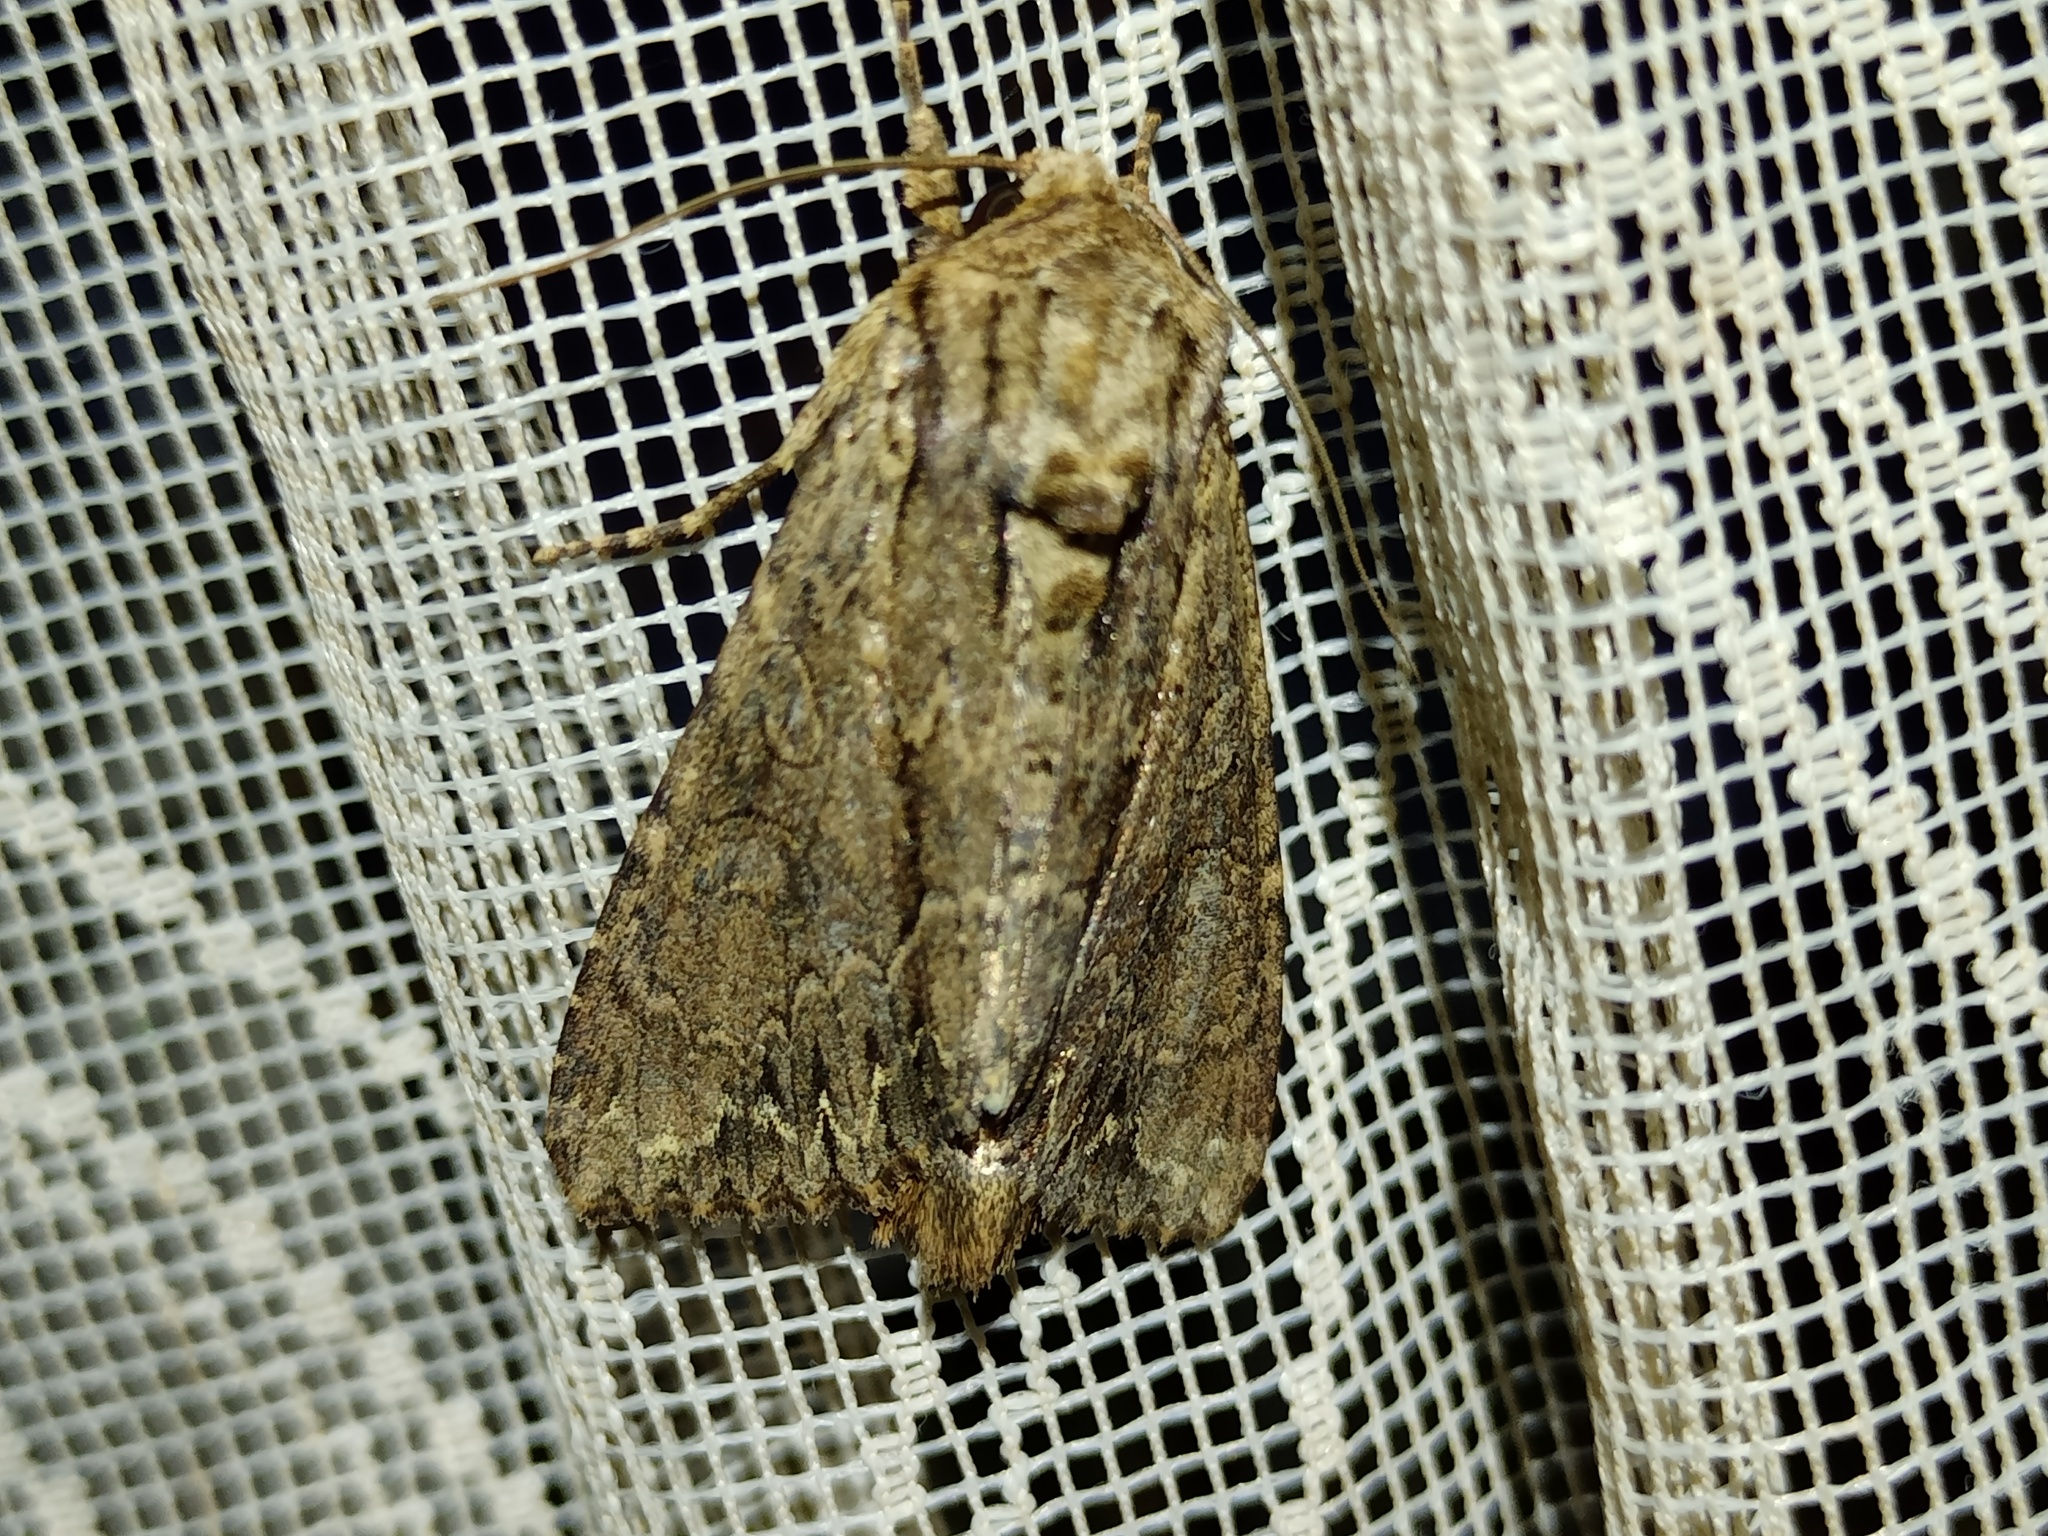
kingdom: Animalia
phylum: Arthropoda
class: Insecta
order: Lepidoptera
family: Noctuidae
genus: Apamea
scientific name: Apamea monoglypha
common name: Dark arches
